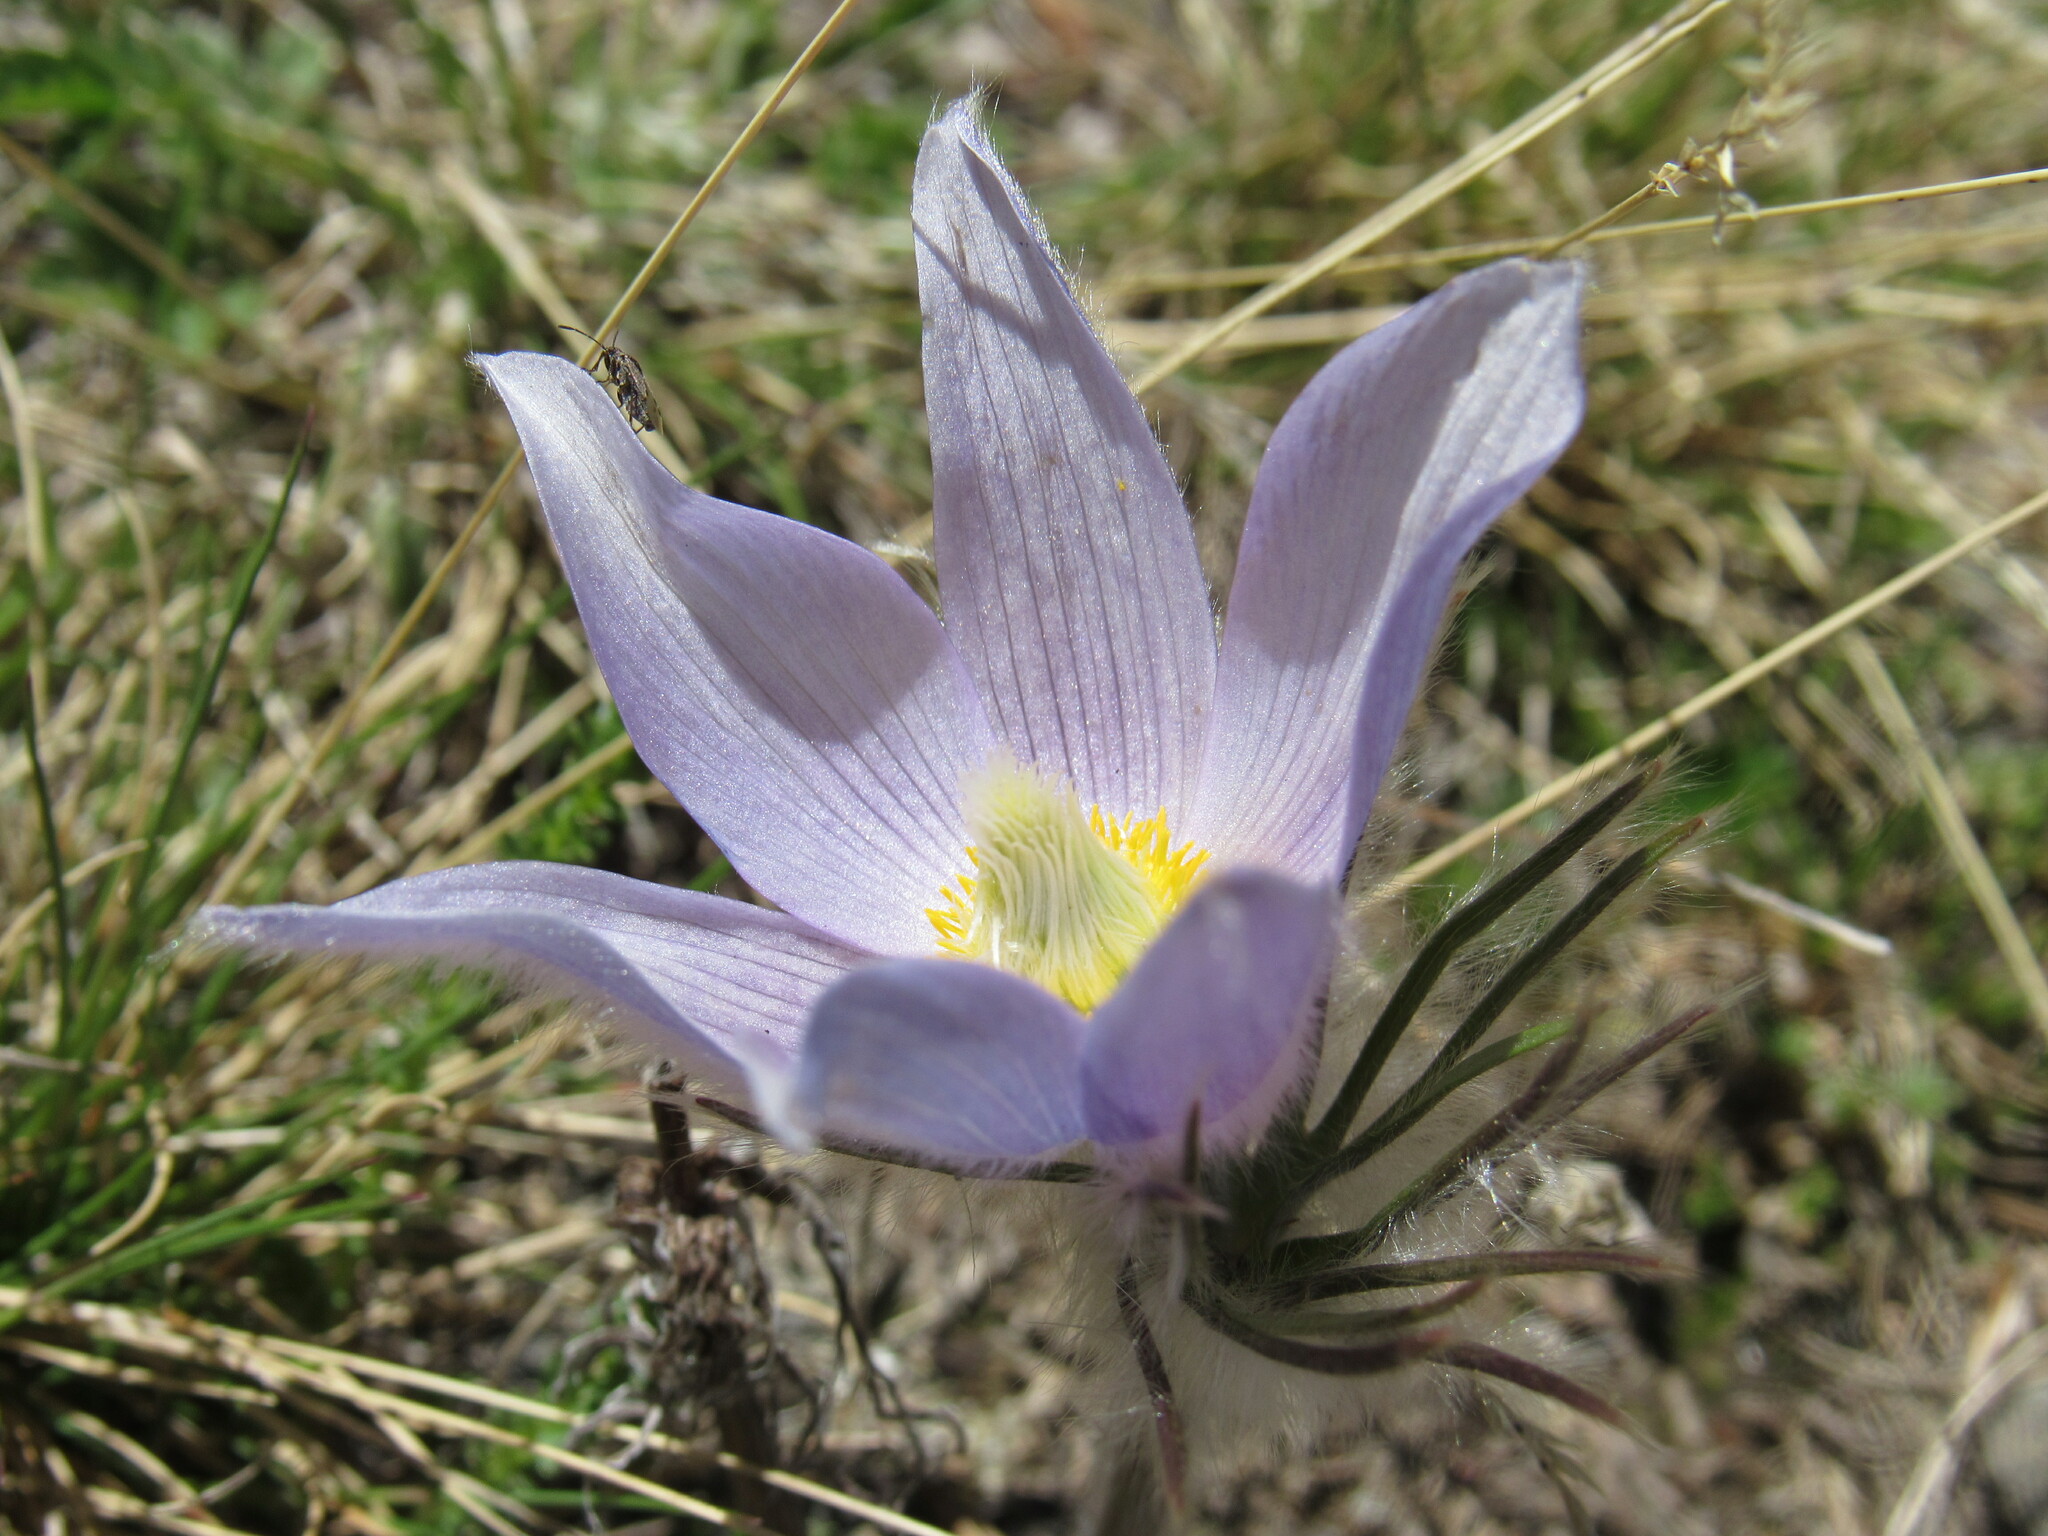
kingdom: Plantae
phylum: Tracheophyta
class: Magnoliopsida
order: Ranunculales
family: Ranunculaceae
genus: Pulsatilla
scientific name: Pulsatilla nuttalliana
